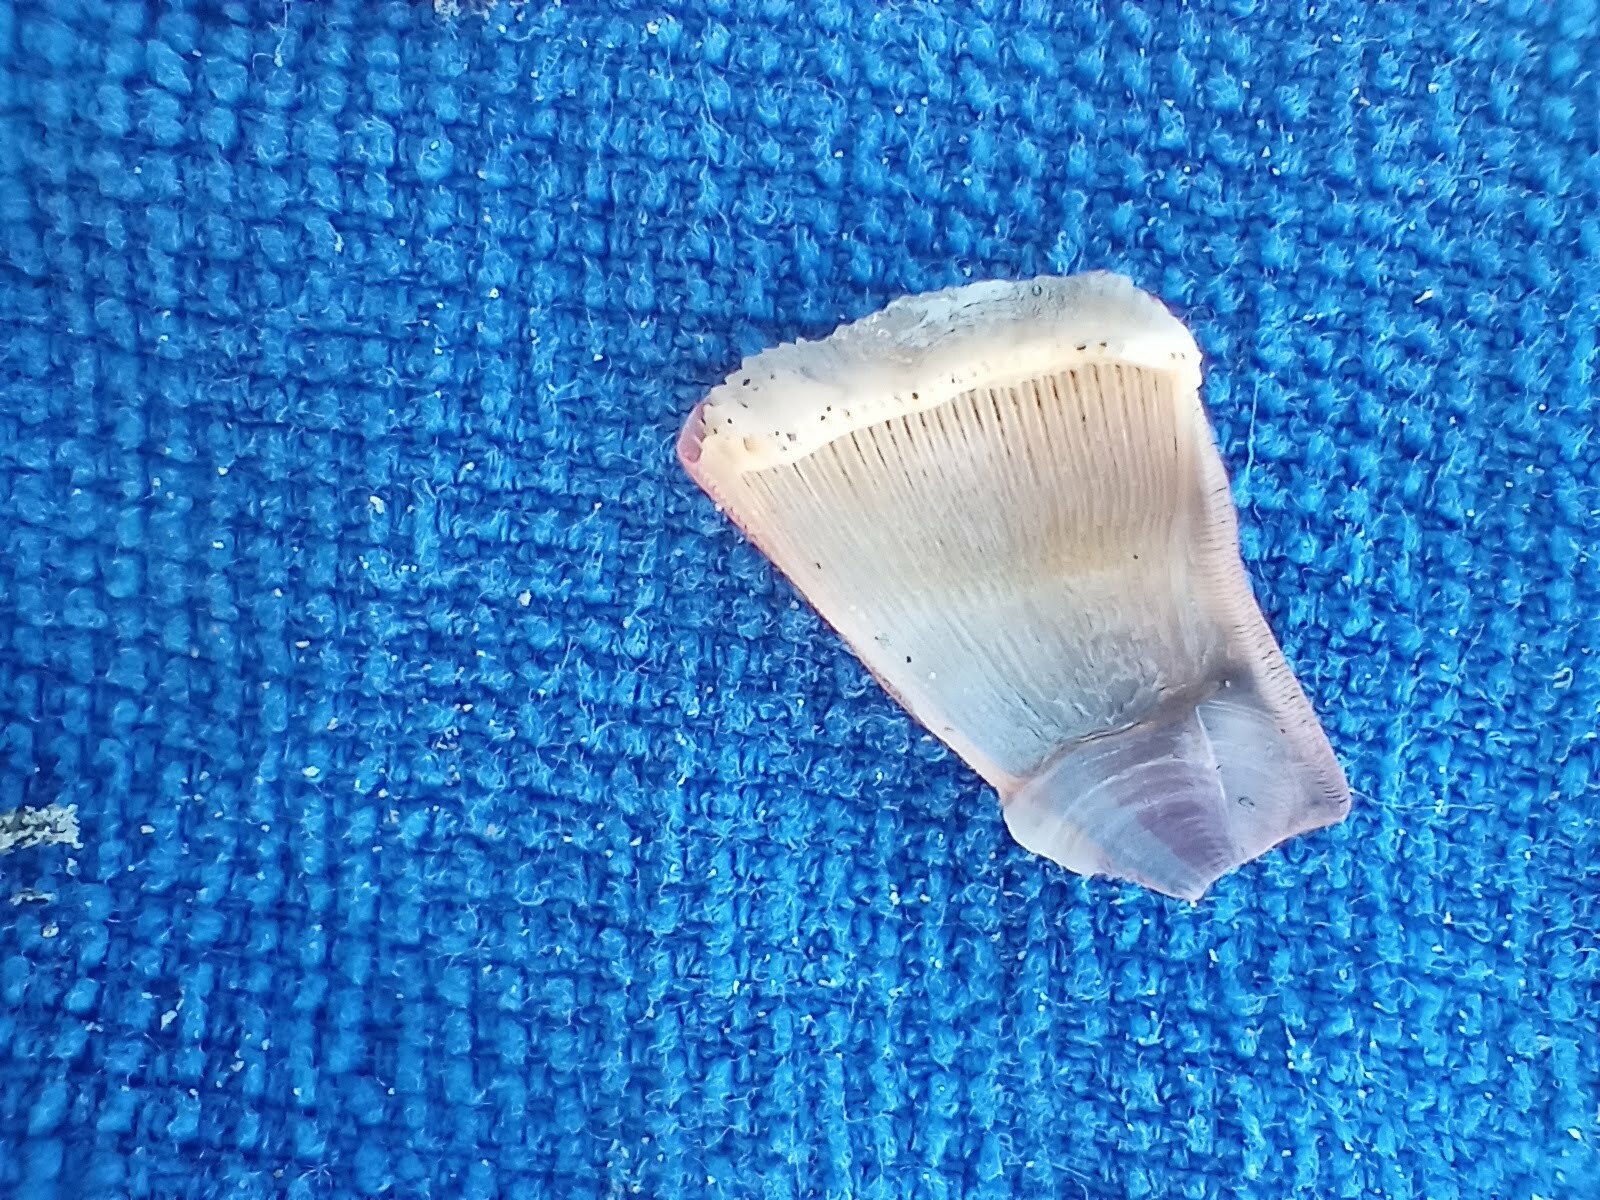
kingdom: Animalia
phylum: Arthropoda
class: Maxillopoda
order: Sessilia
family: Balanidae
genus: Paraconcavus
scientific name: Paraconcavus pacificus
